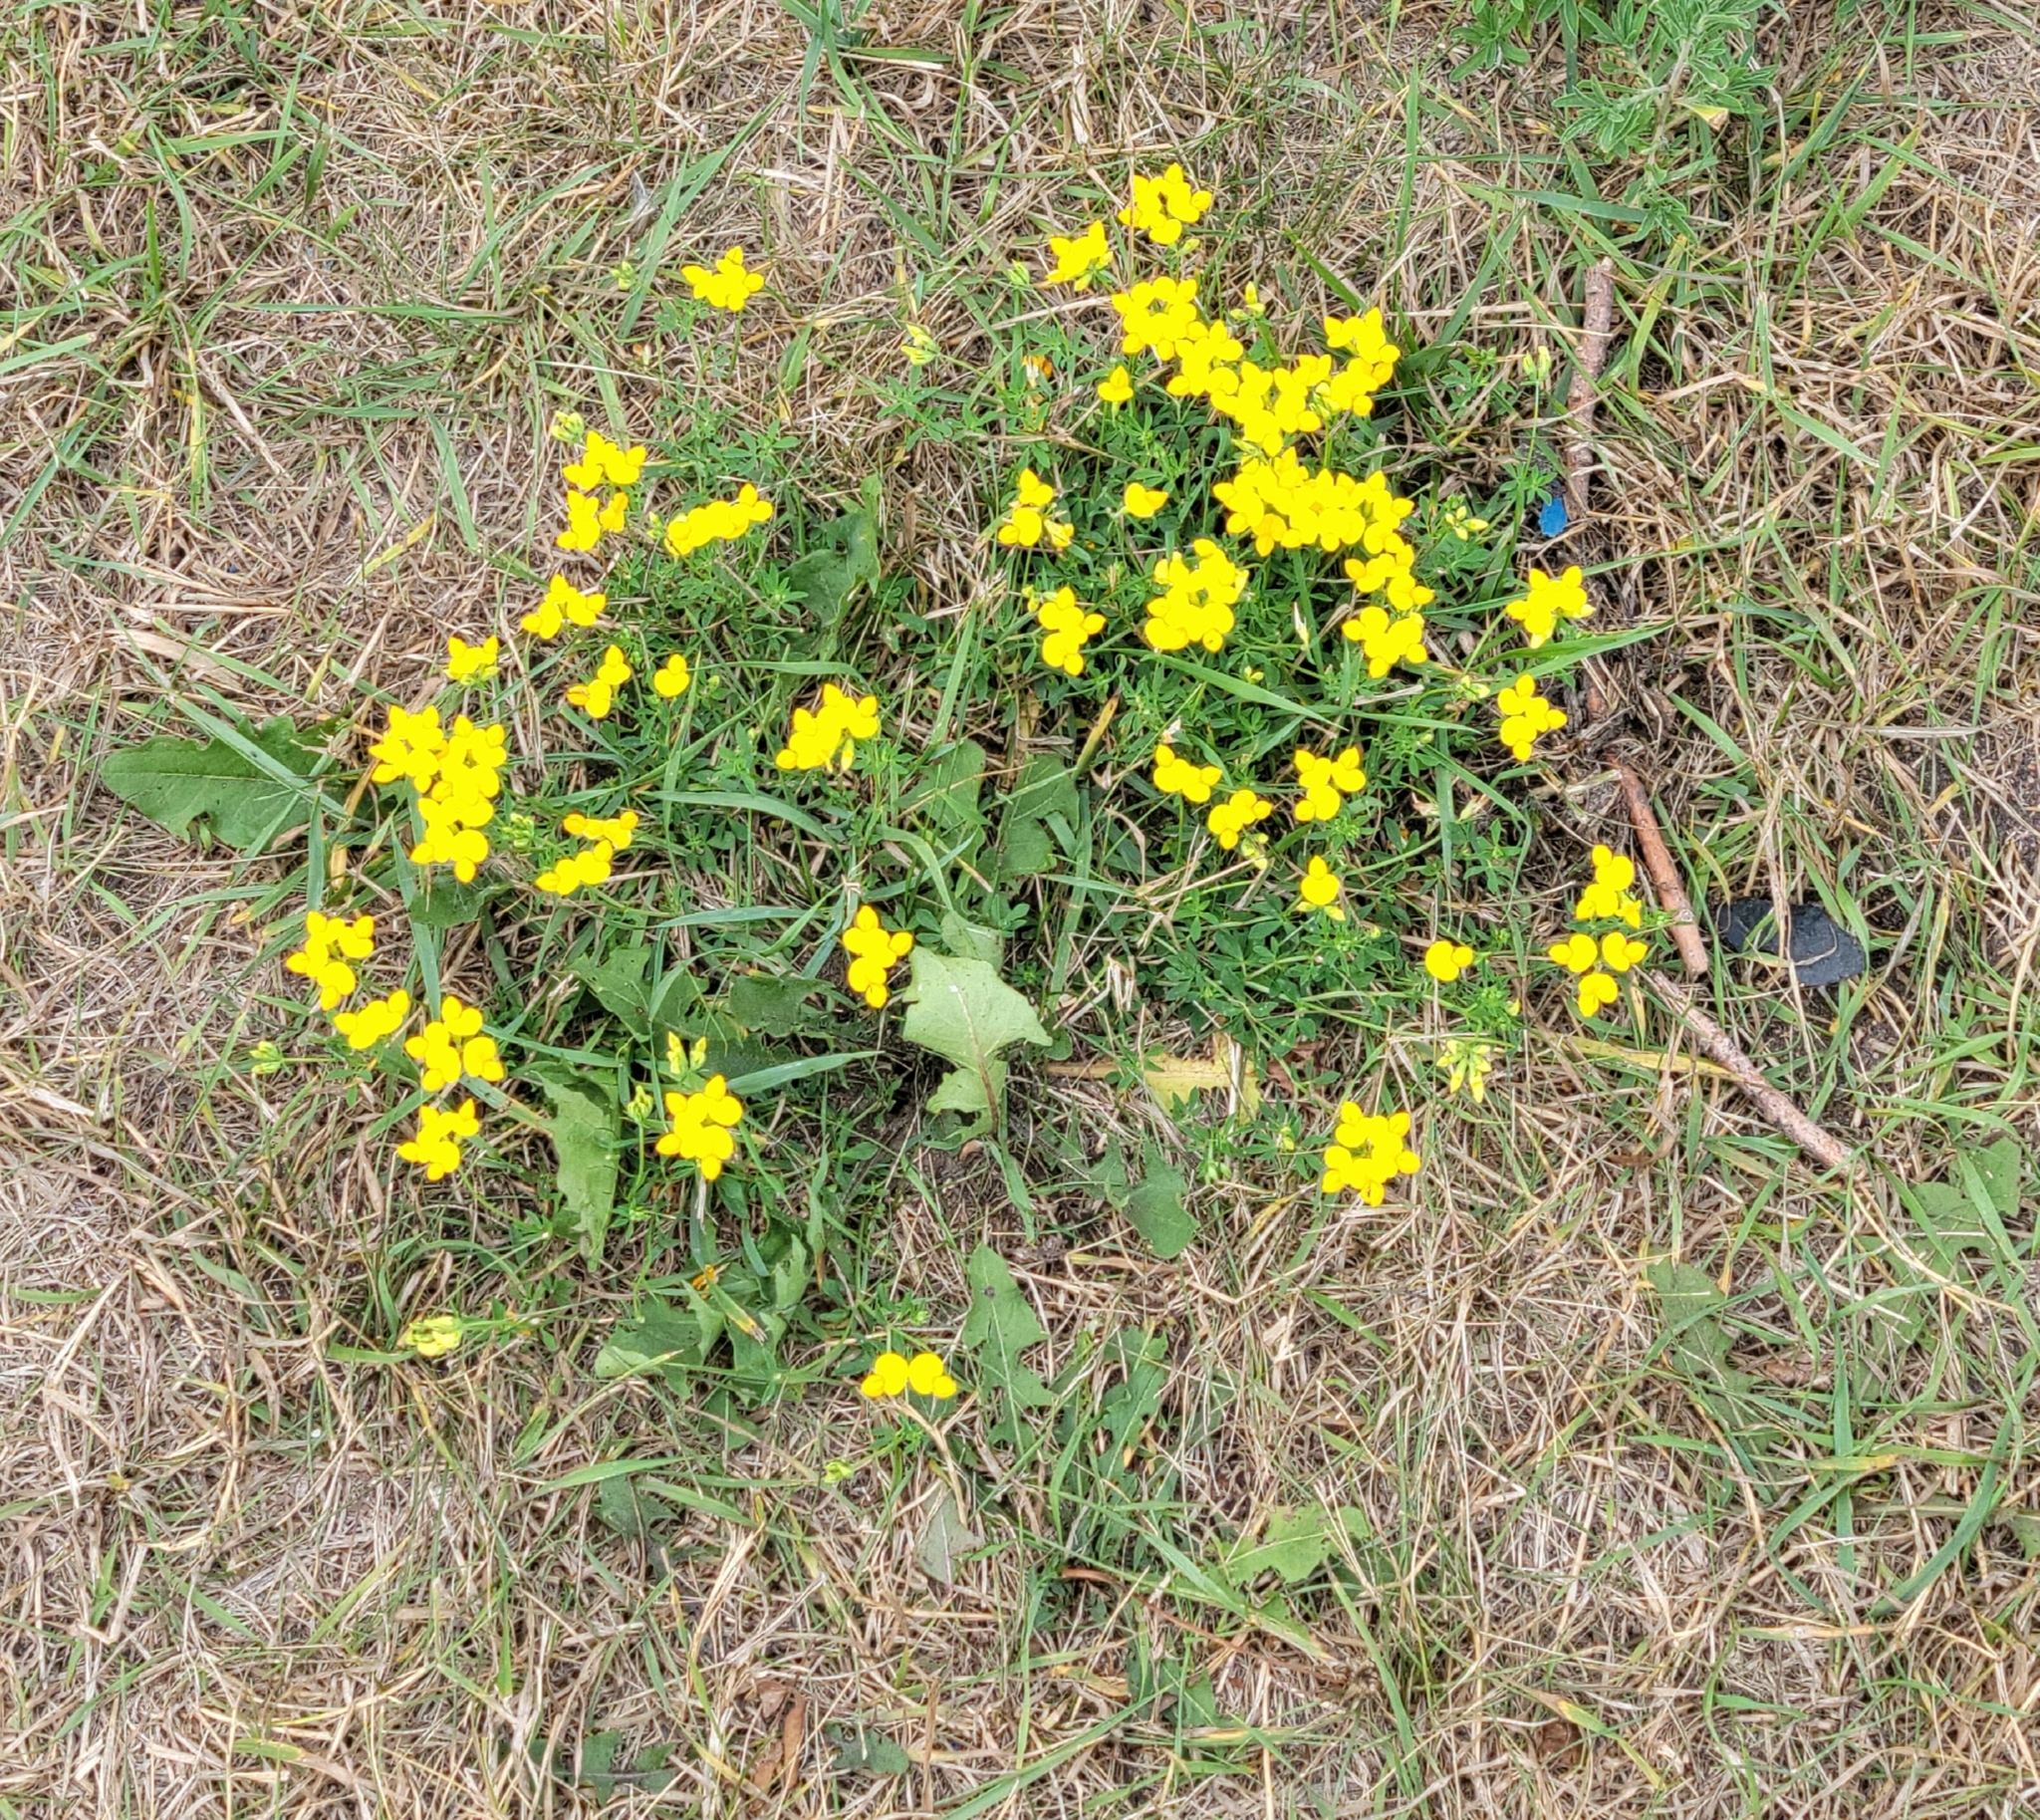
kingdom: Plantae
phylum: Tracheophyta
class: Magnoliopsida
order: Fabales
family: Fabaceae
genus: Lotus
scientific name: Lotus corniculatus
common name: Common bird's-foot-trefoil
